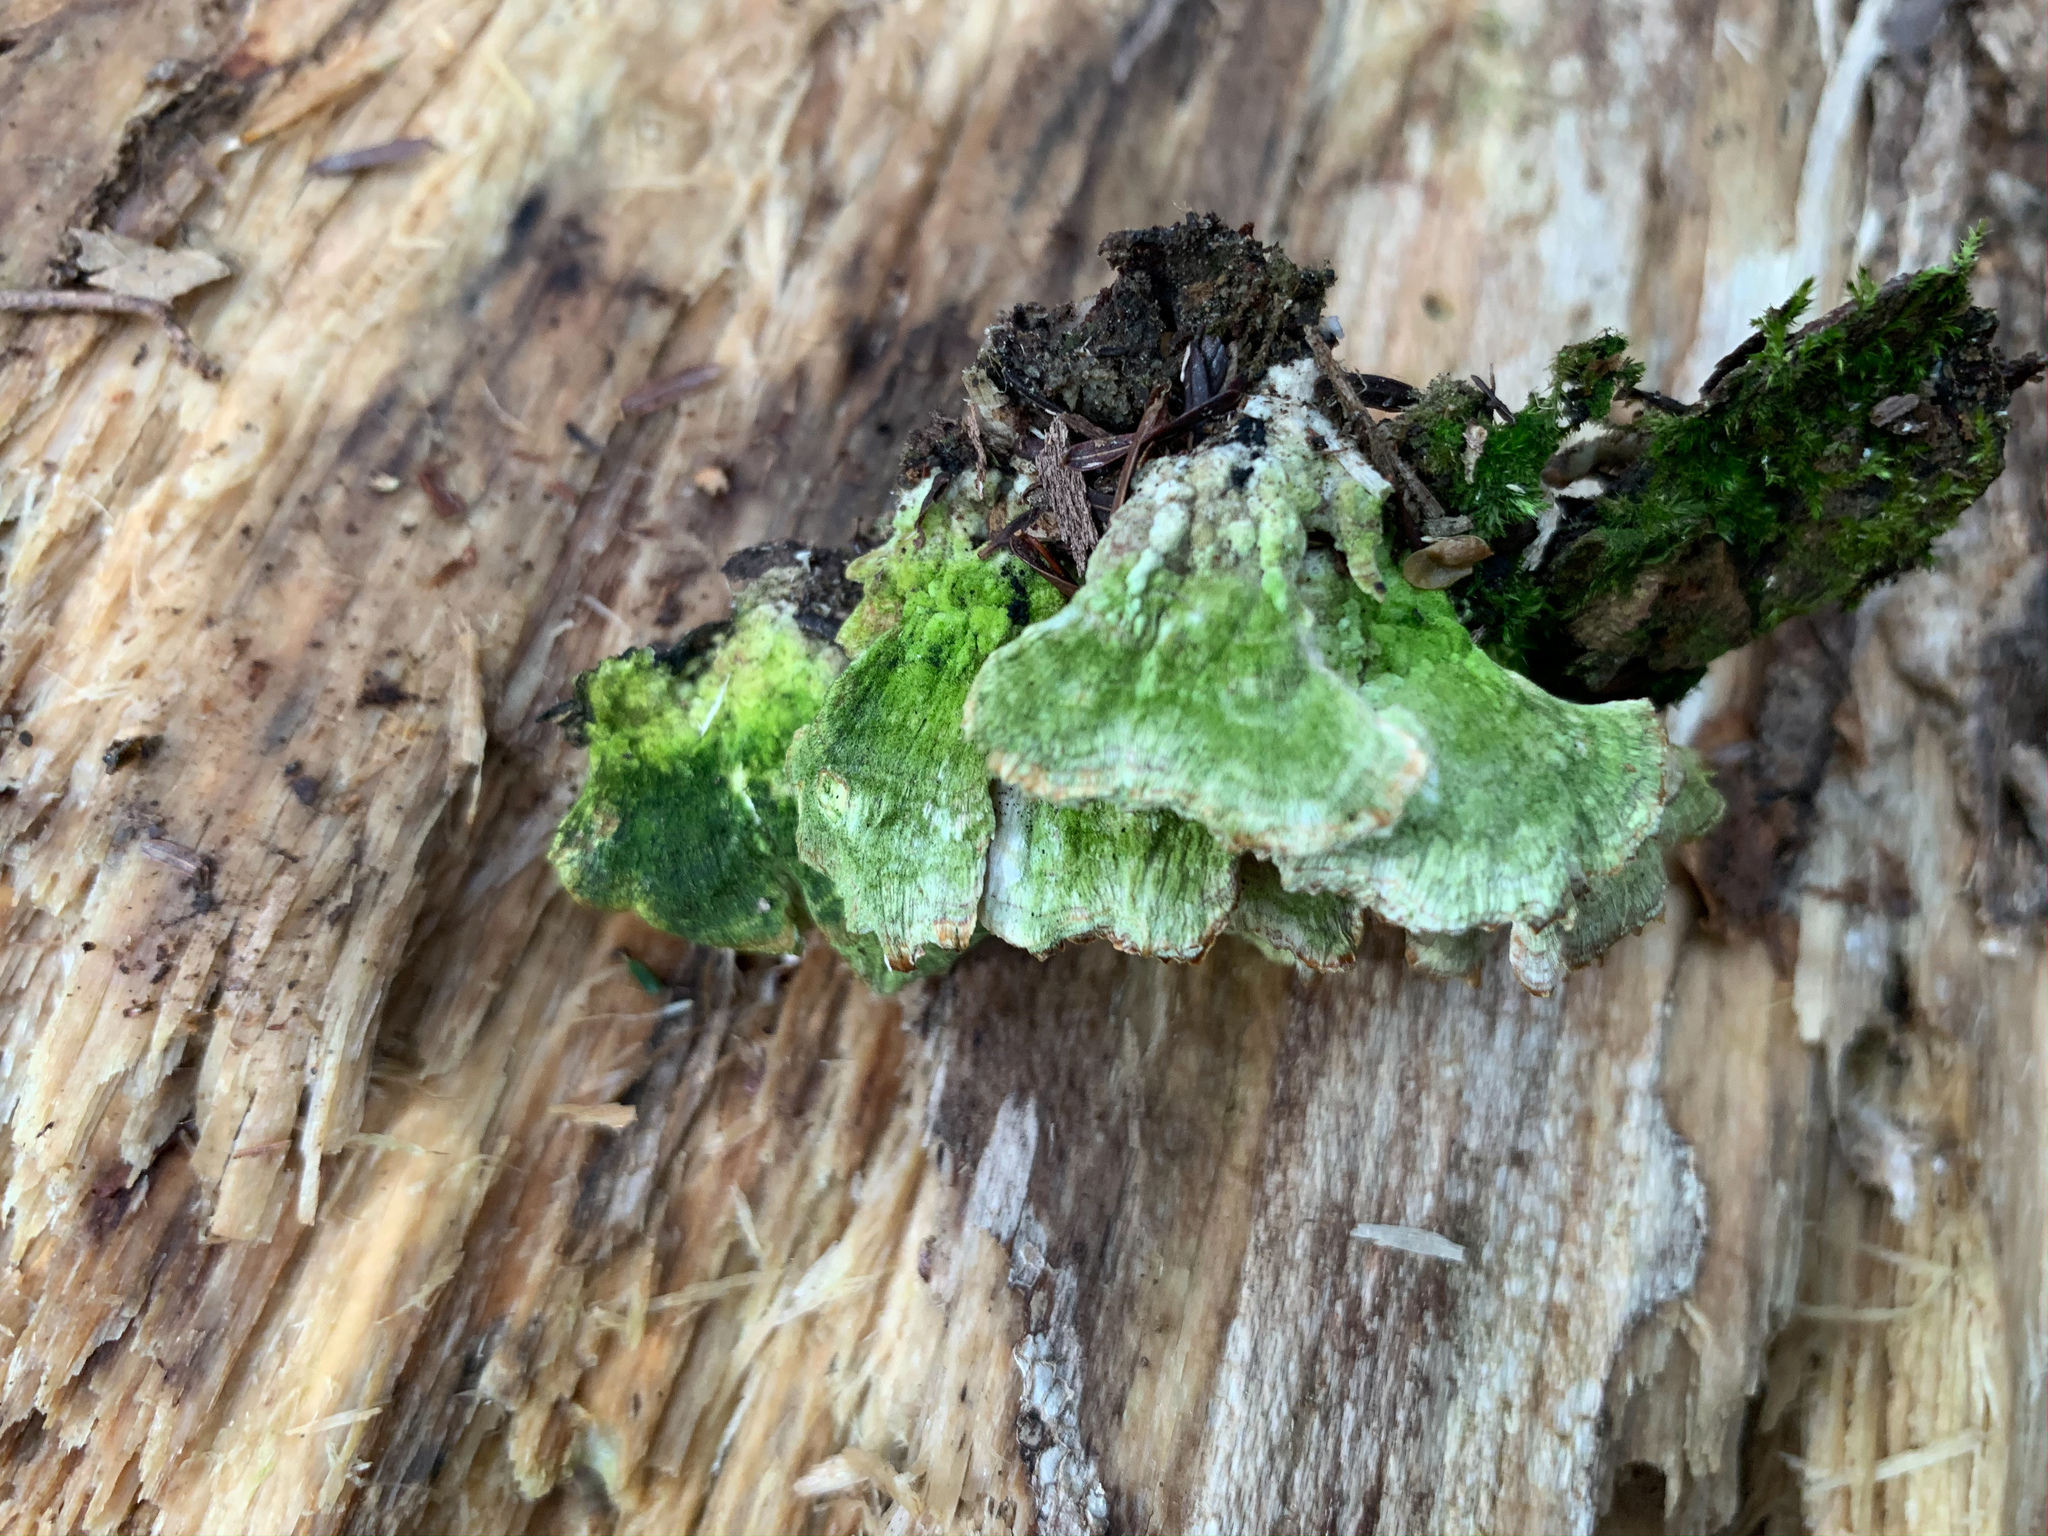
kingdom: Fungi
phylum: Basidiomycota
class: Agaricomycetes
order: Hymenochaetales
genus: Trichaptum
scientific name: Trichaptum abietinum
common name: Purplepore bracket
